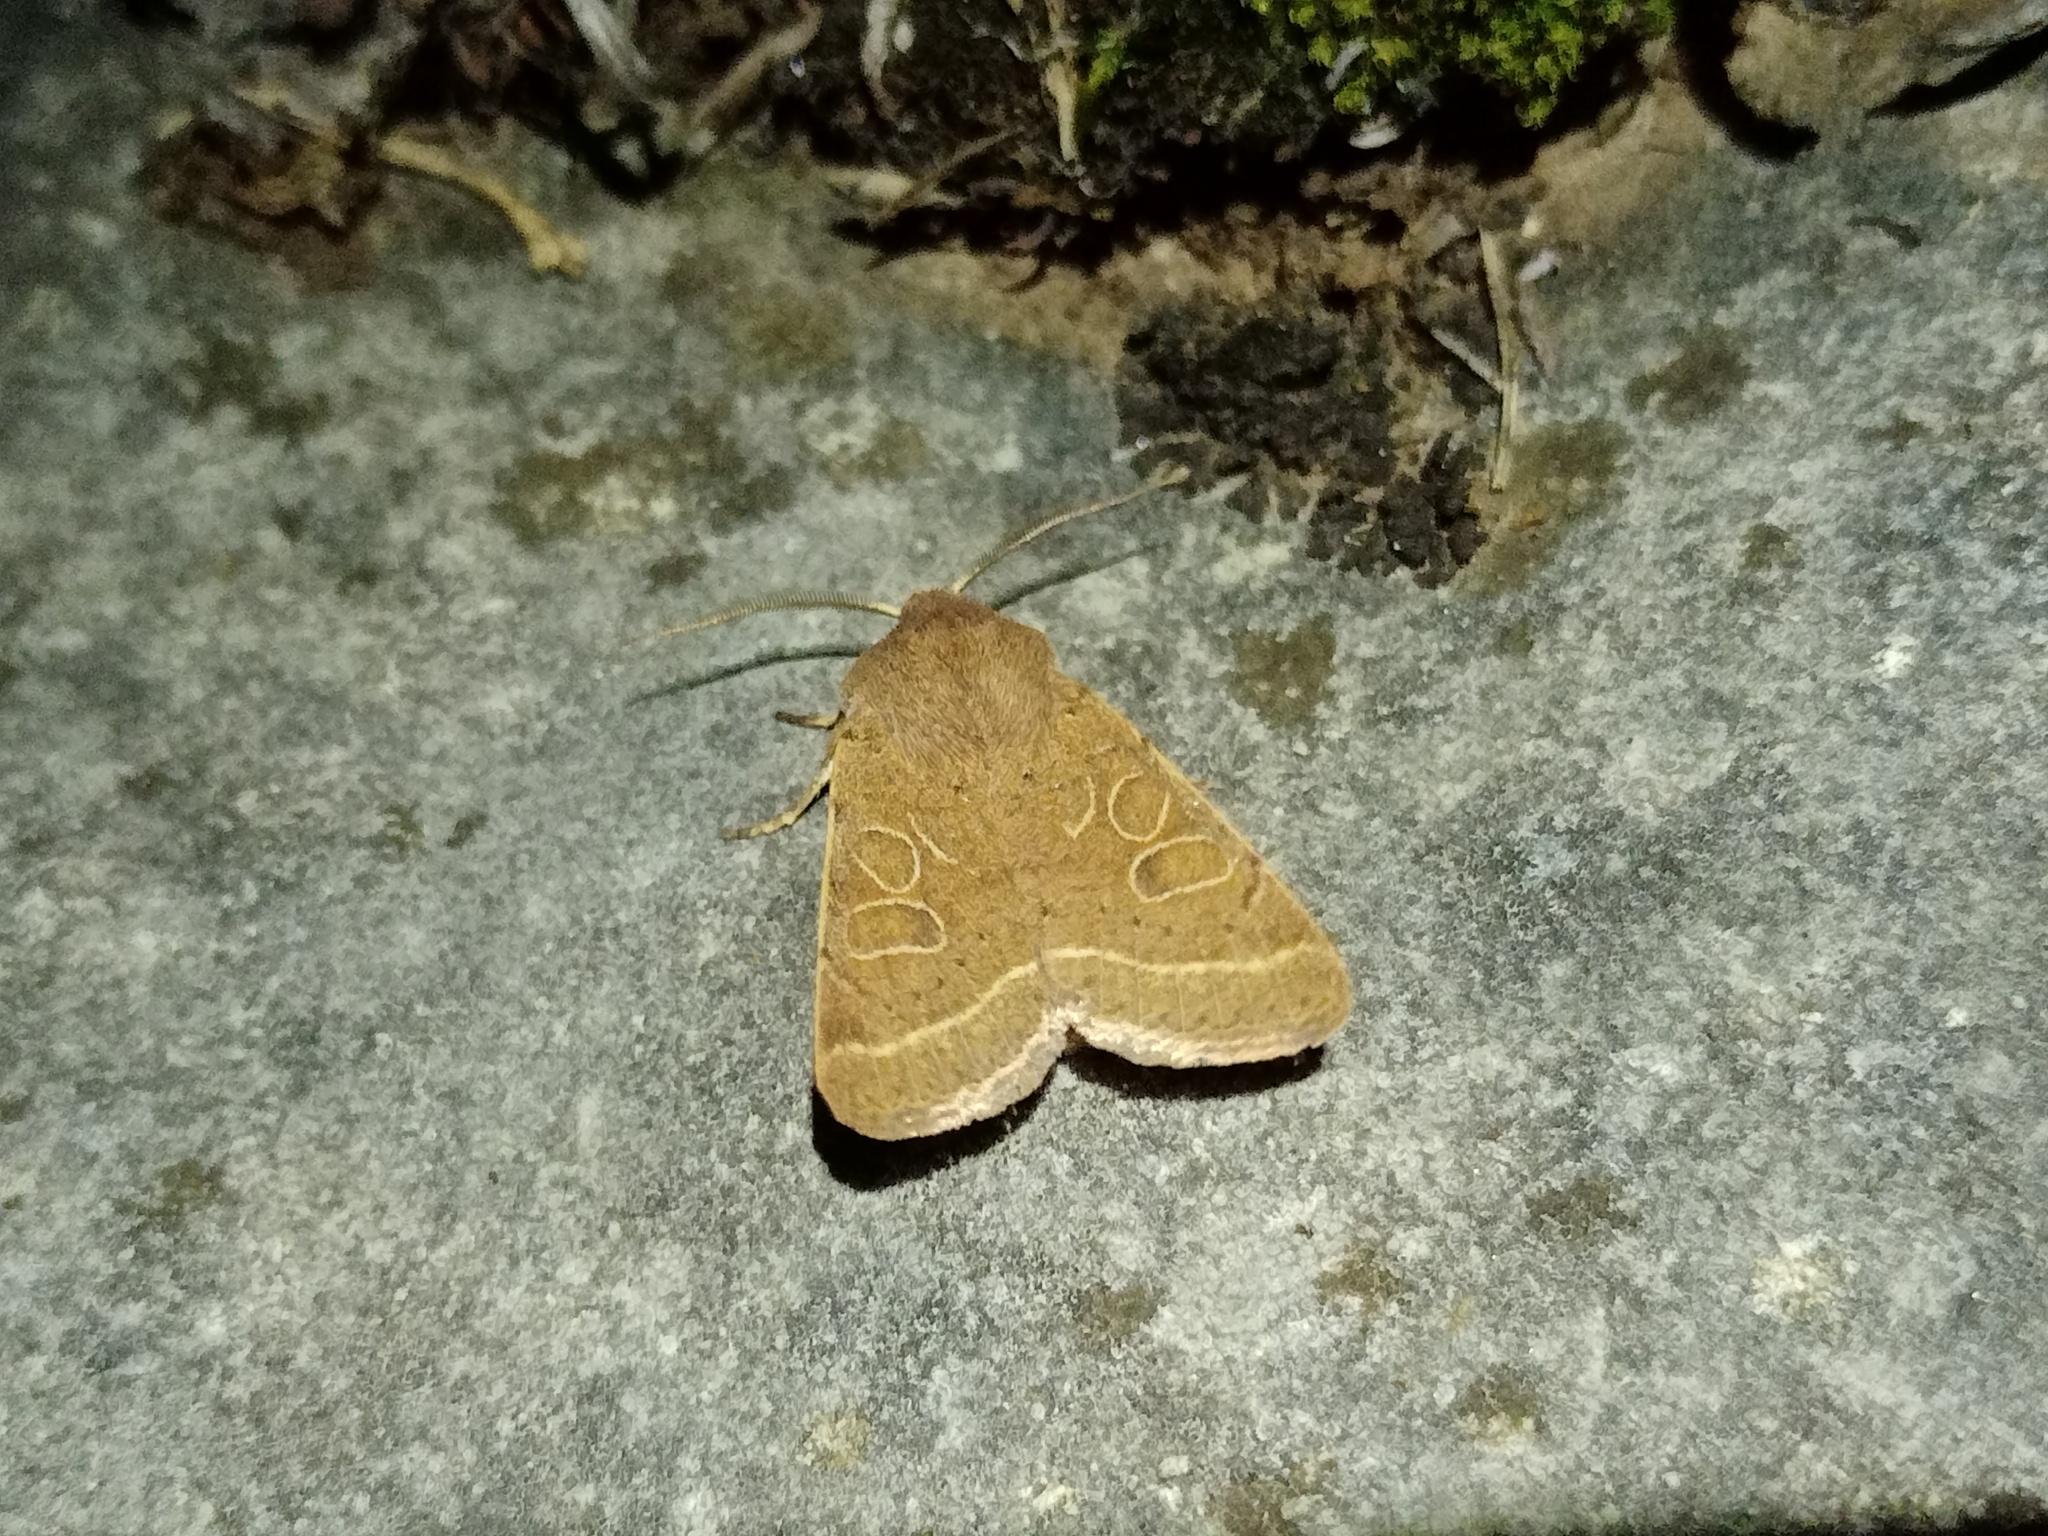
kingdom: Animalia
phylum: Arthropoda
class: Insecta
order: Lepidoptera
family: Noctuidae
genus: Orthosia
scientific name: Orthosia cerasi
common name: Common quaker
